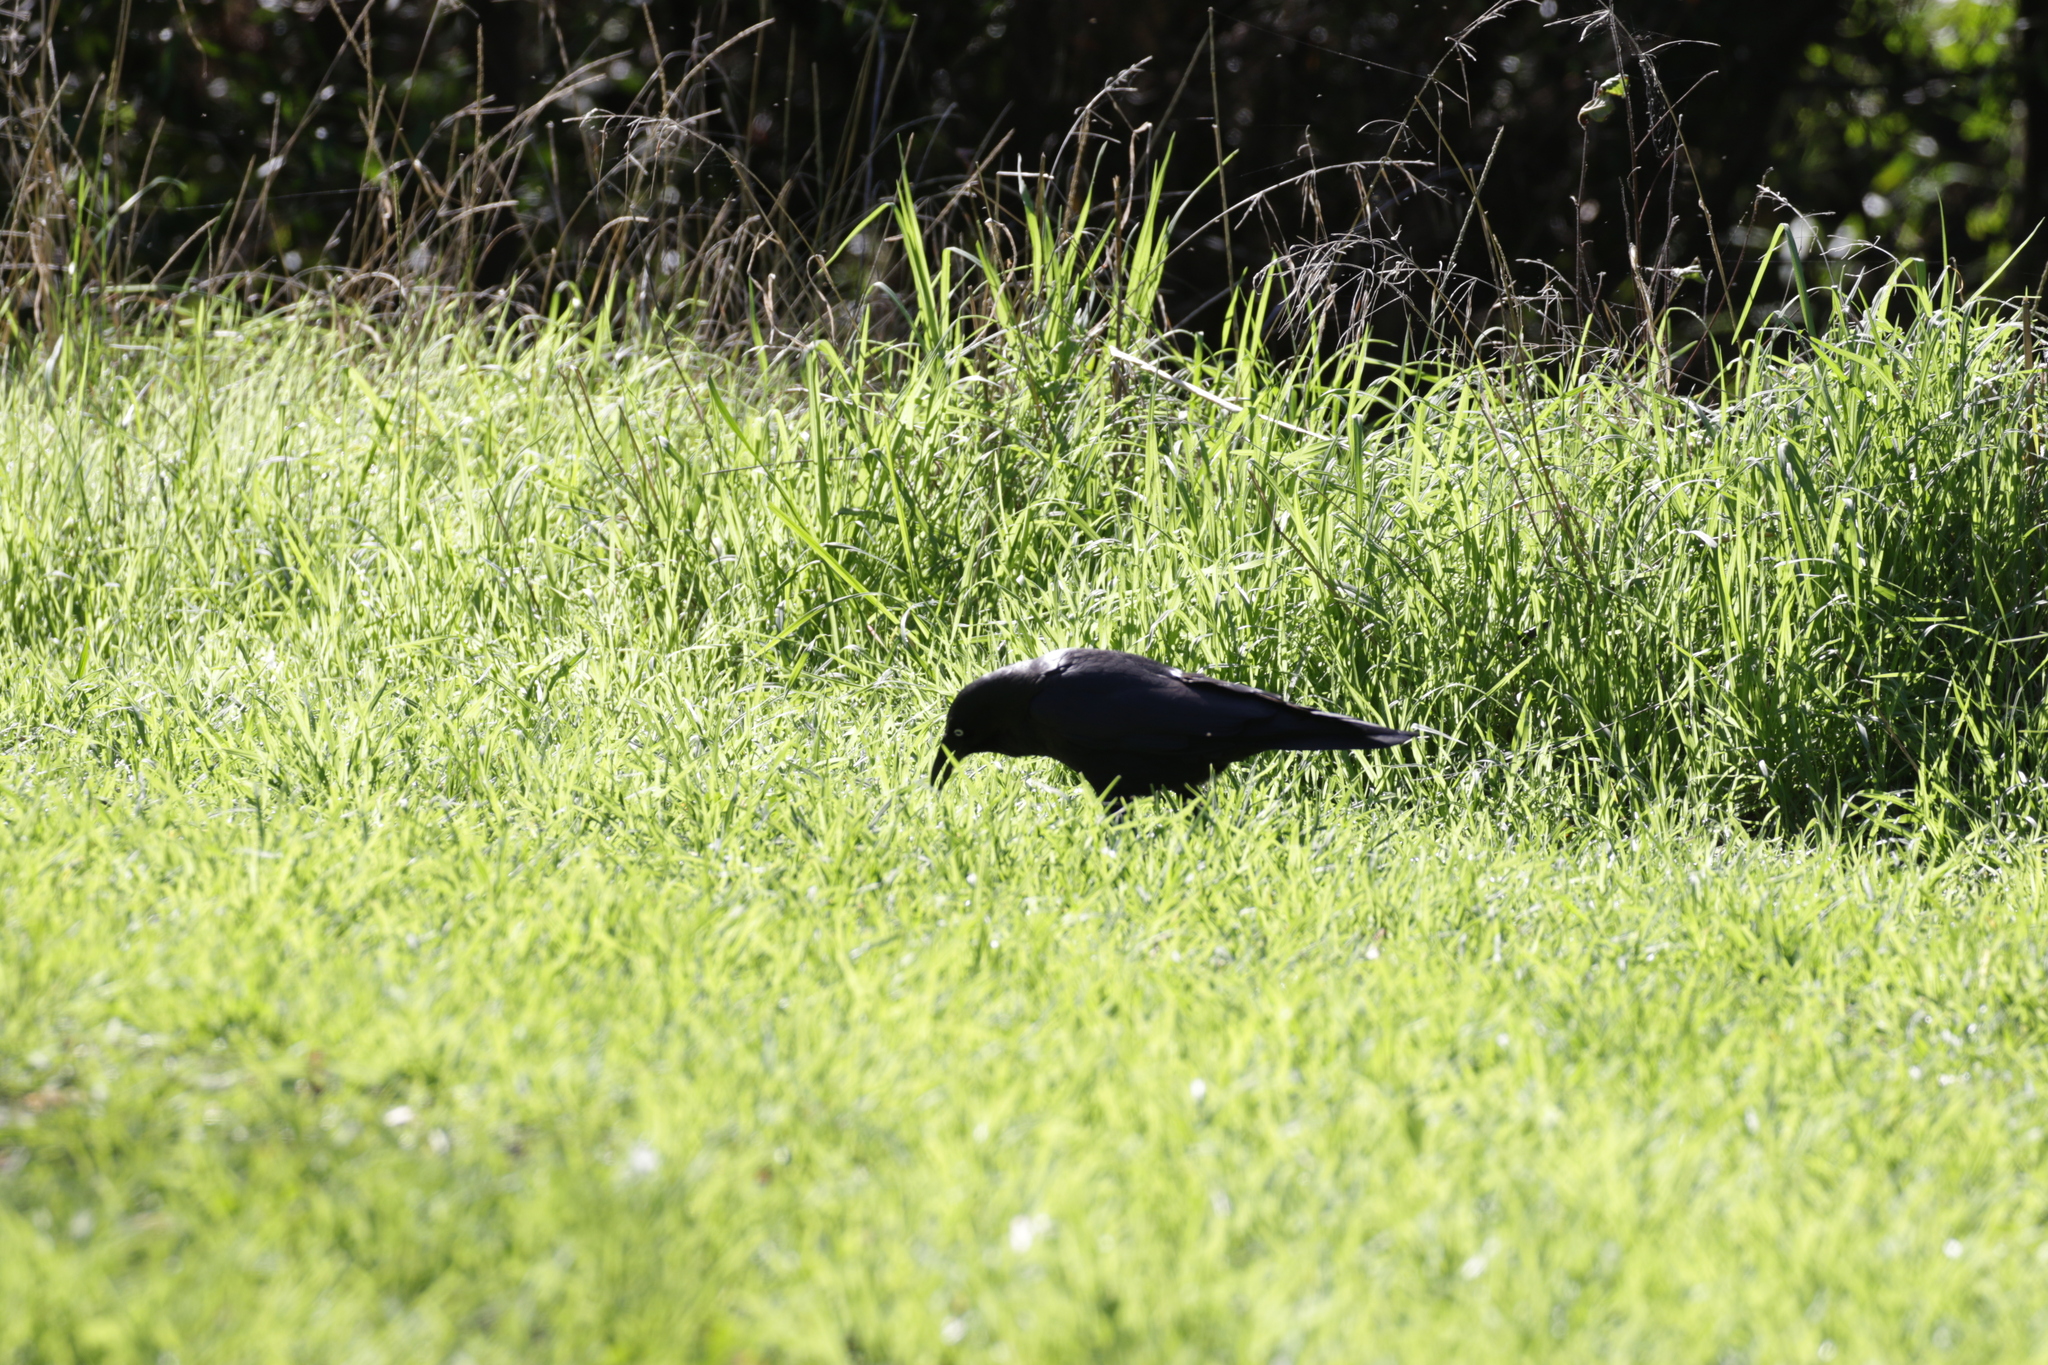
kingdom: Animalia
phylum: Chordata
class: Aves
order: Passeriformes
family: Corvidae
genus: Corvus
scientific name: Corvus mellori
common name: Little raven
